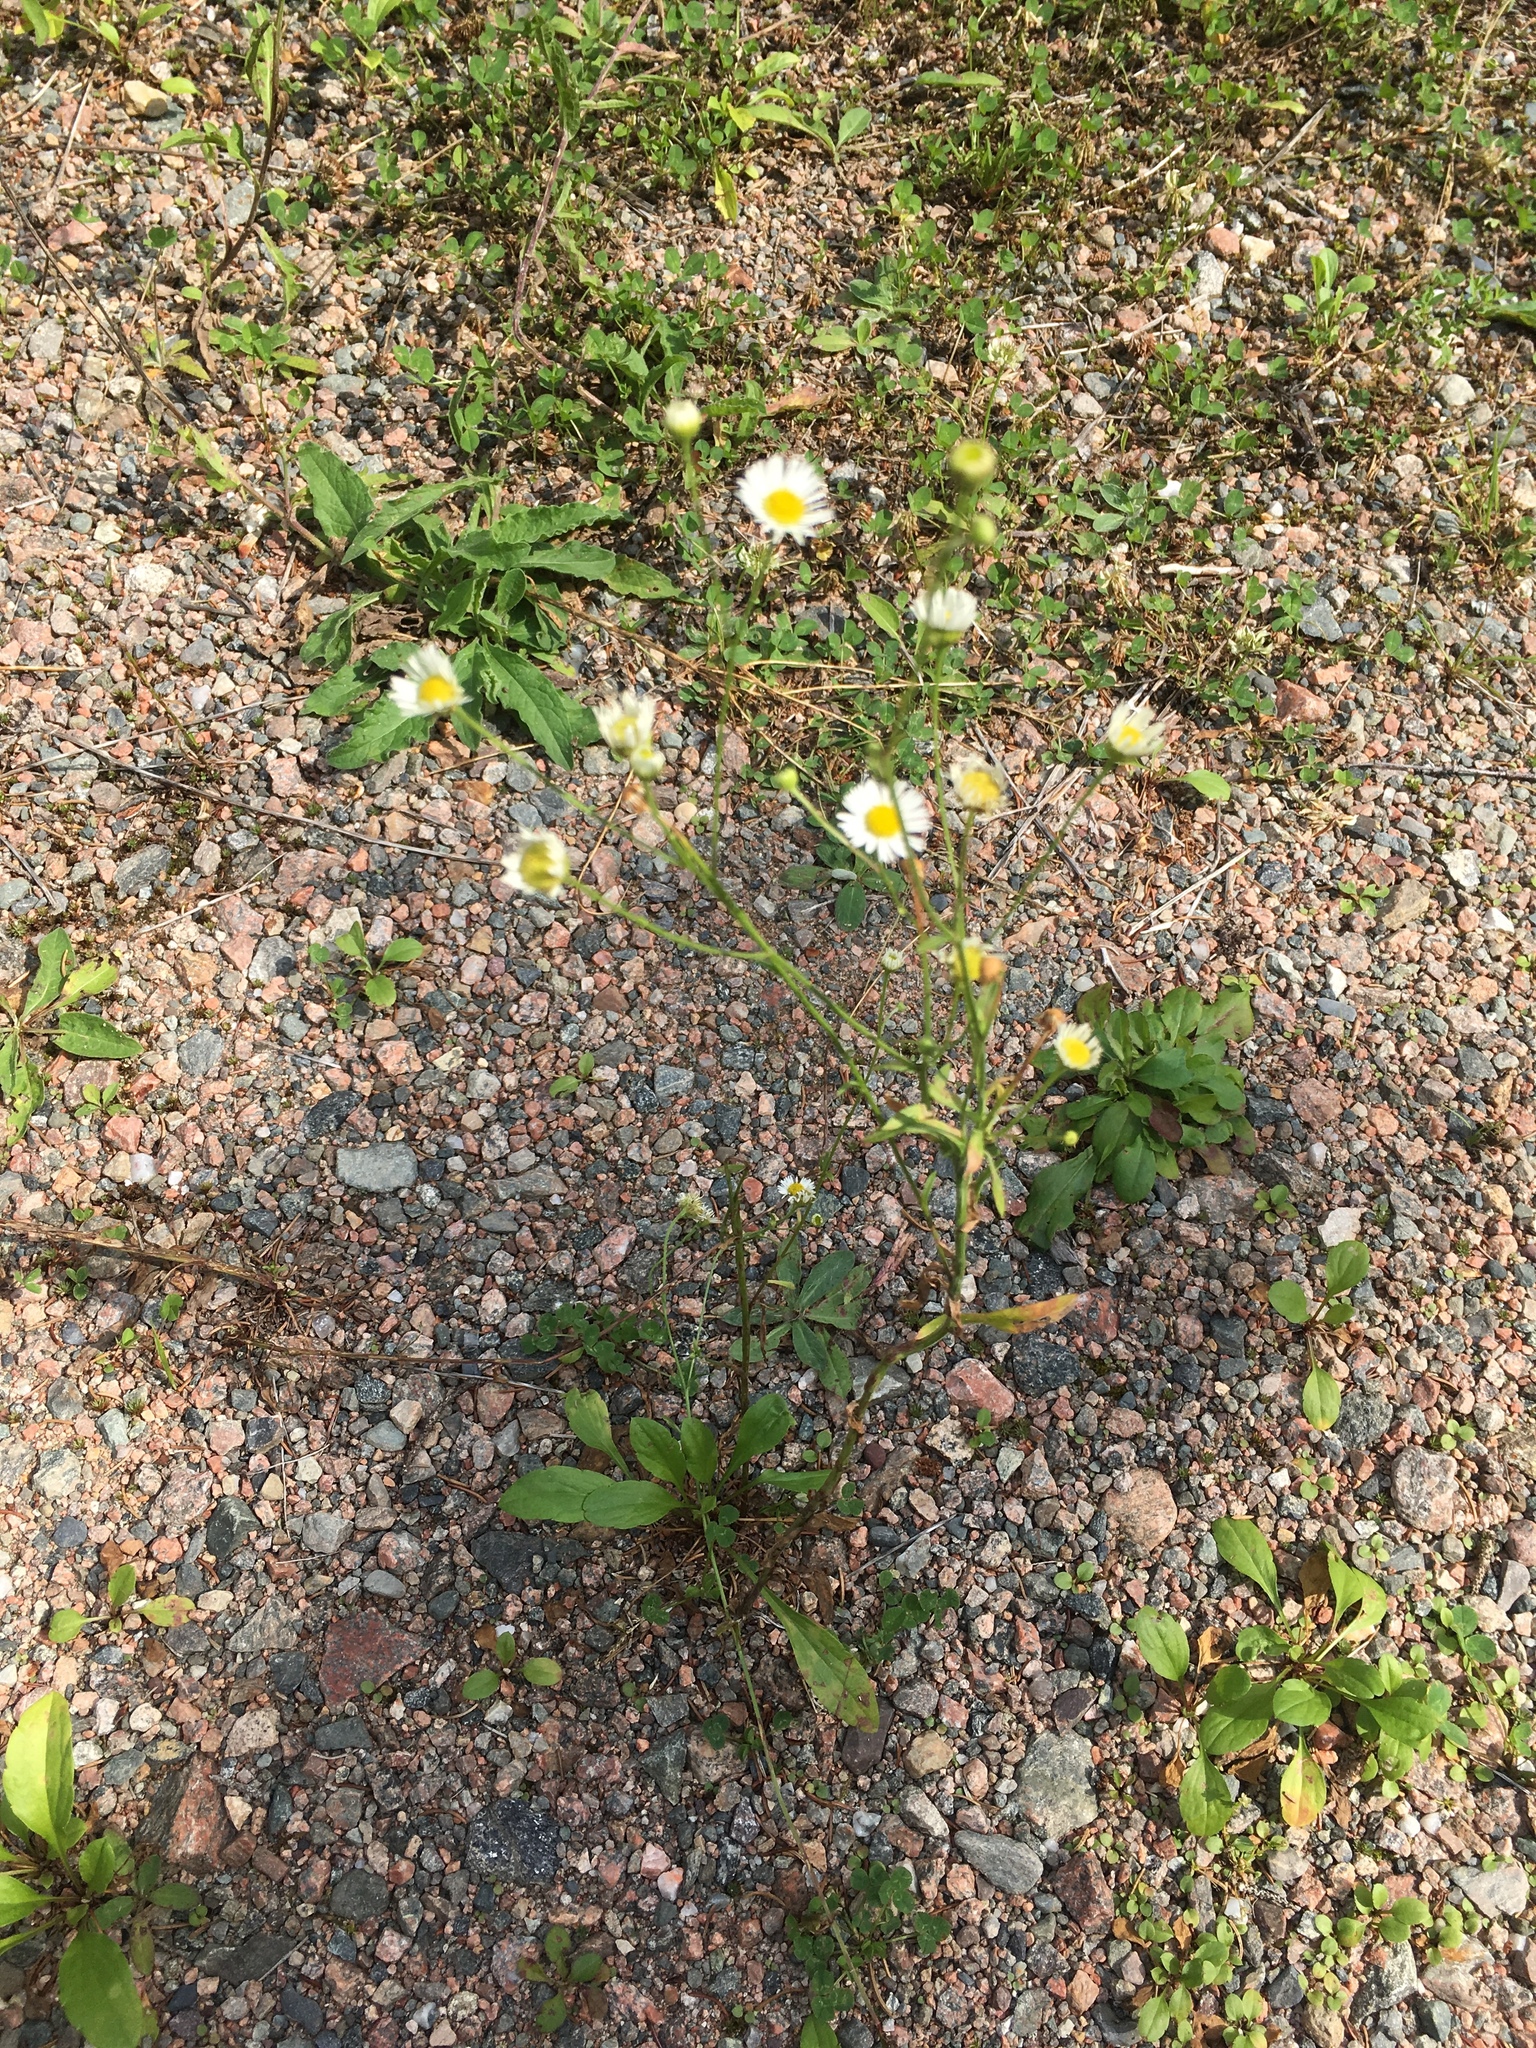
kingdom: Plantae
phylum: Tracheophyta
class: Magnoliopsida
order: Asterales
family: Asteraceae
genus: Erigeron
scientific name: Erigeron strigosus
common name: Common eastern fleabane
